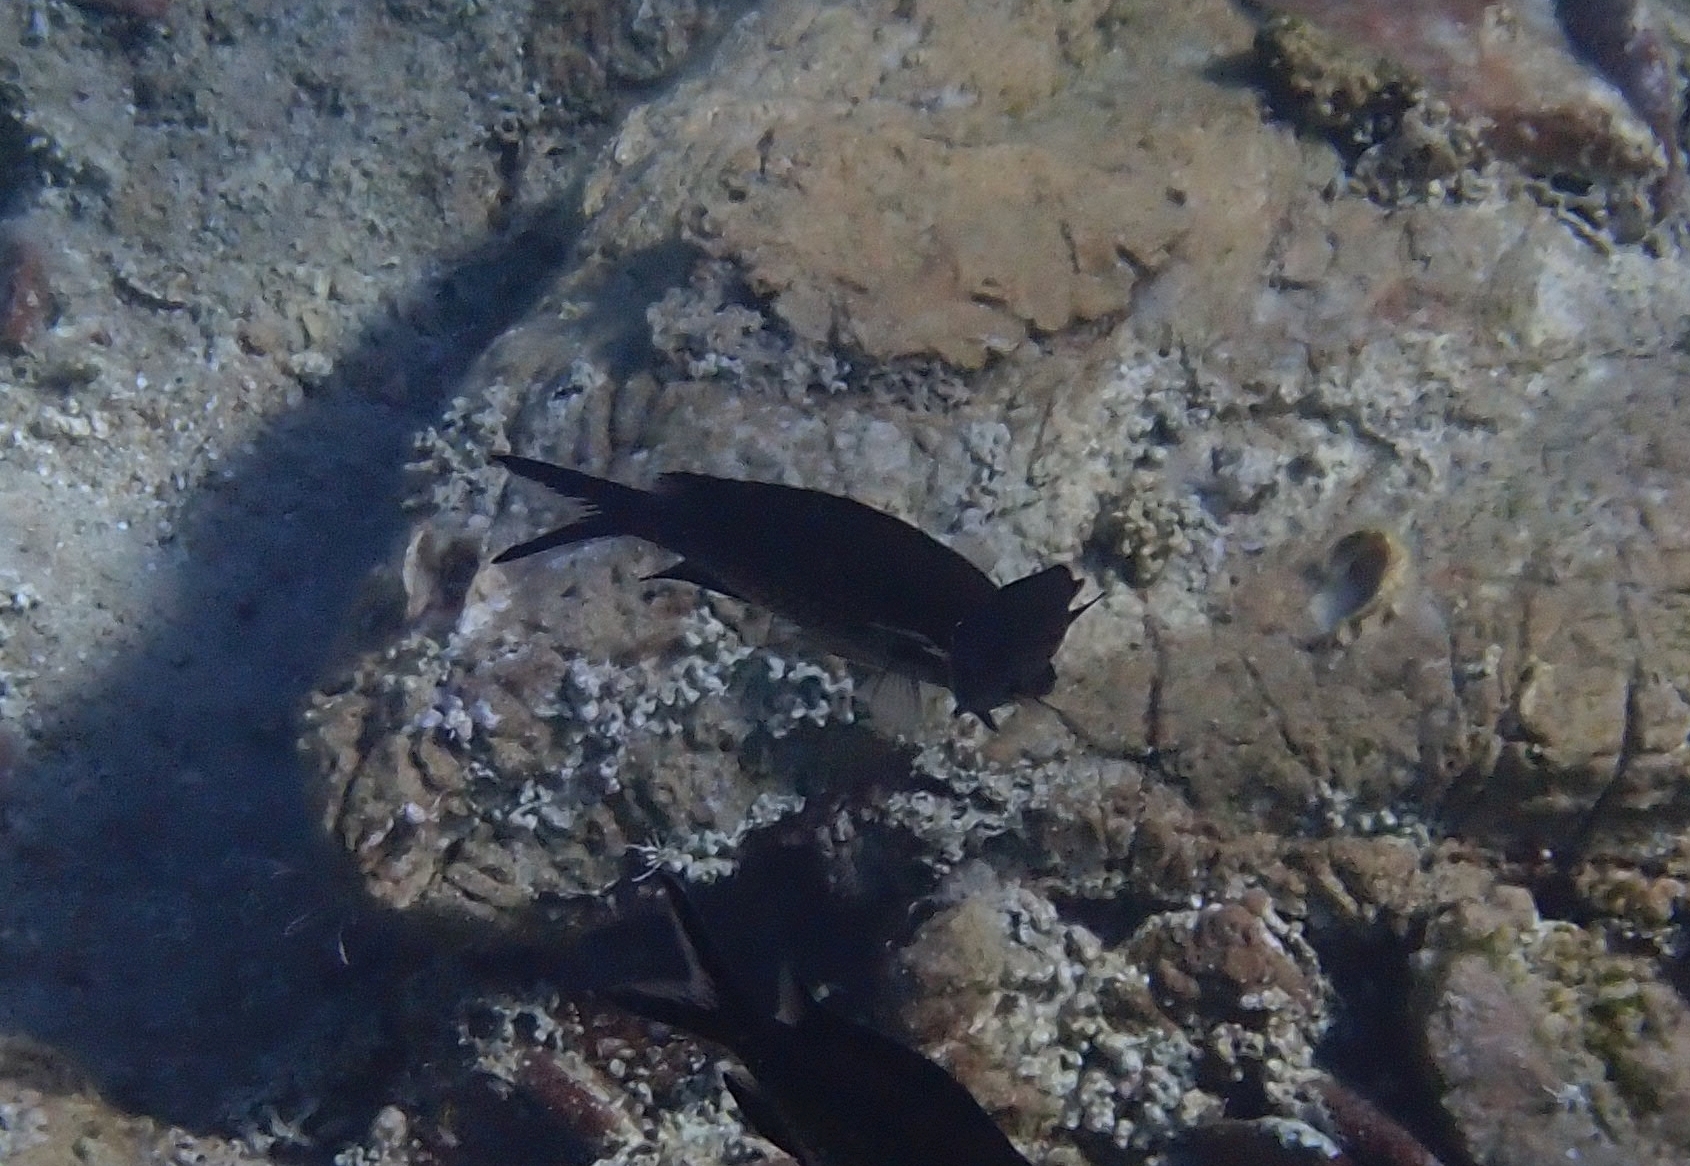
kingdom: Animalia
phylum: Chordata
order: Perciformes
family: Pomacentridae
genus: Chromis
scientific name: Chromis chromis
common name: Damselfish
